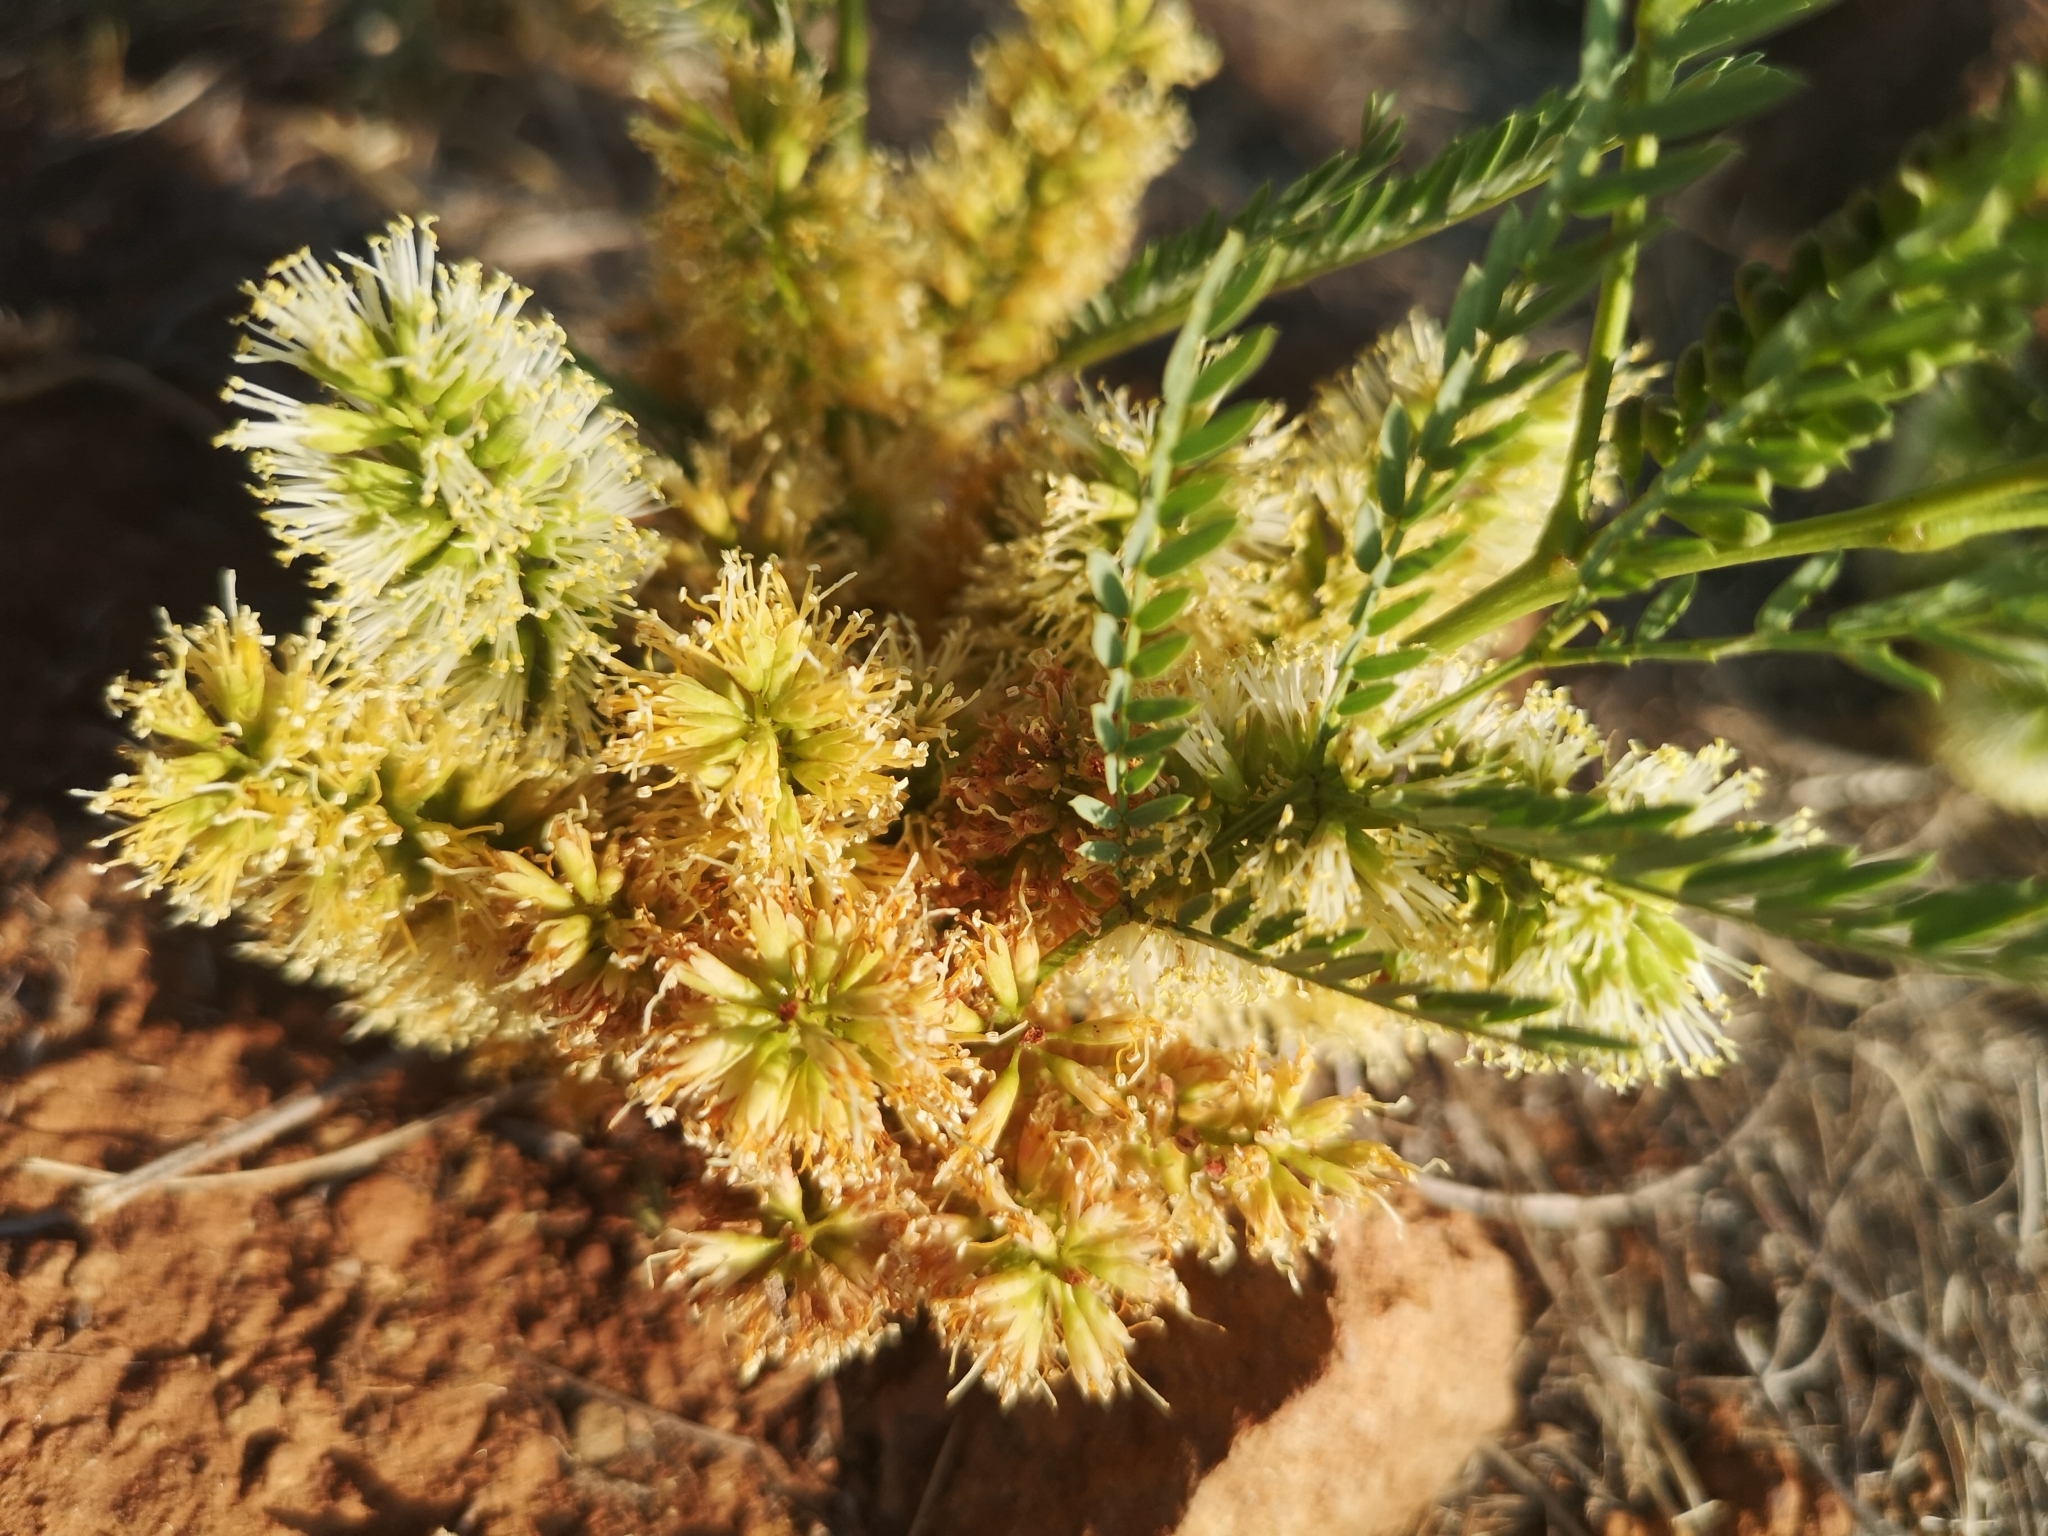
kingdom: Plantae
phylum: Tracheophyta
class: Magnoliopsida
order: Fabales
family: Fabaceae
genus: Elephantorrhiza
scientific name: Elephantorrhiza elephantina
